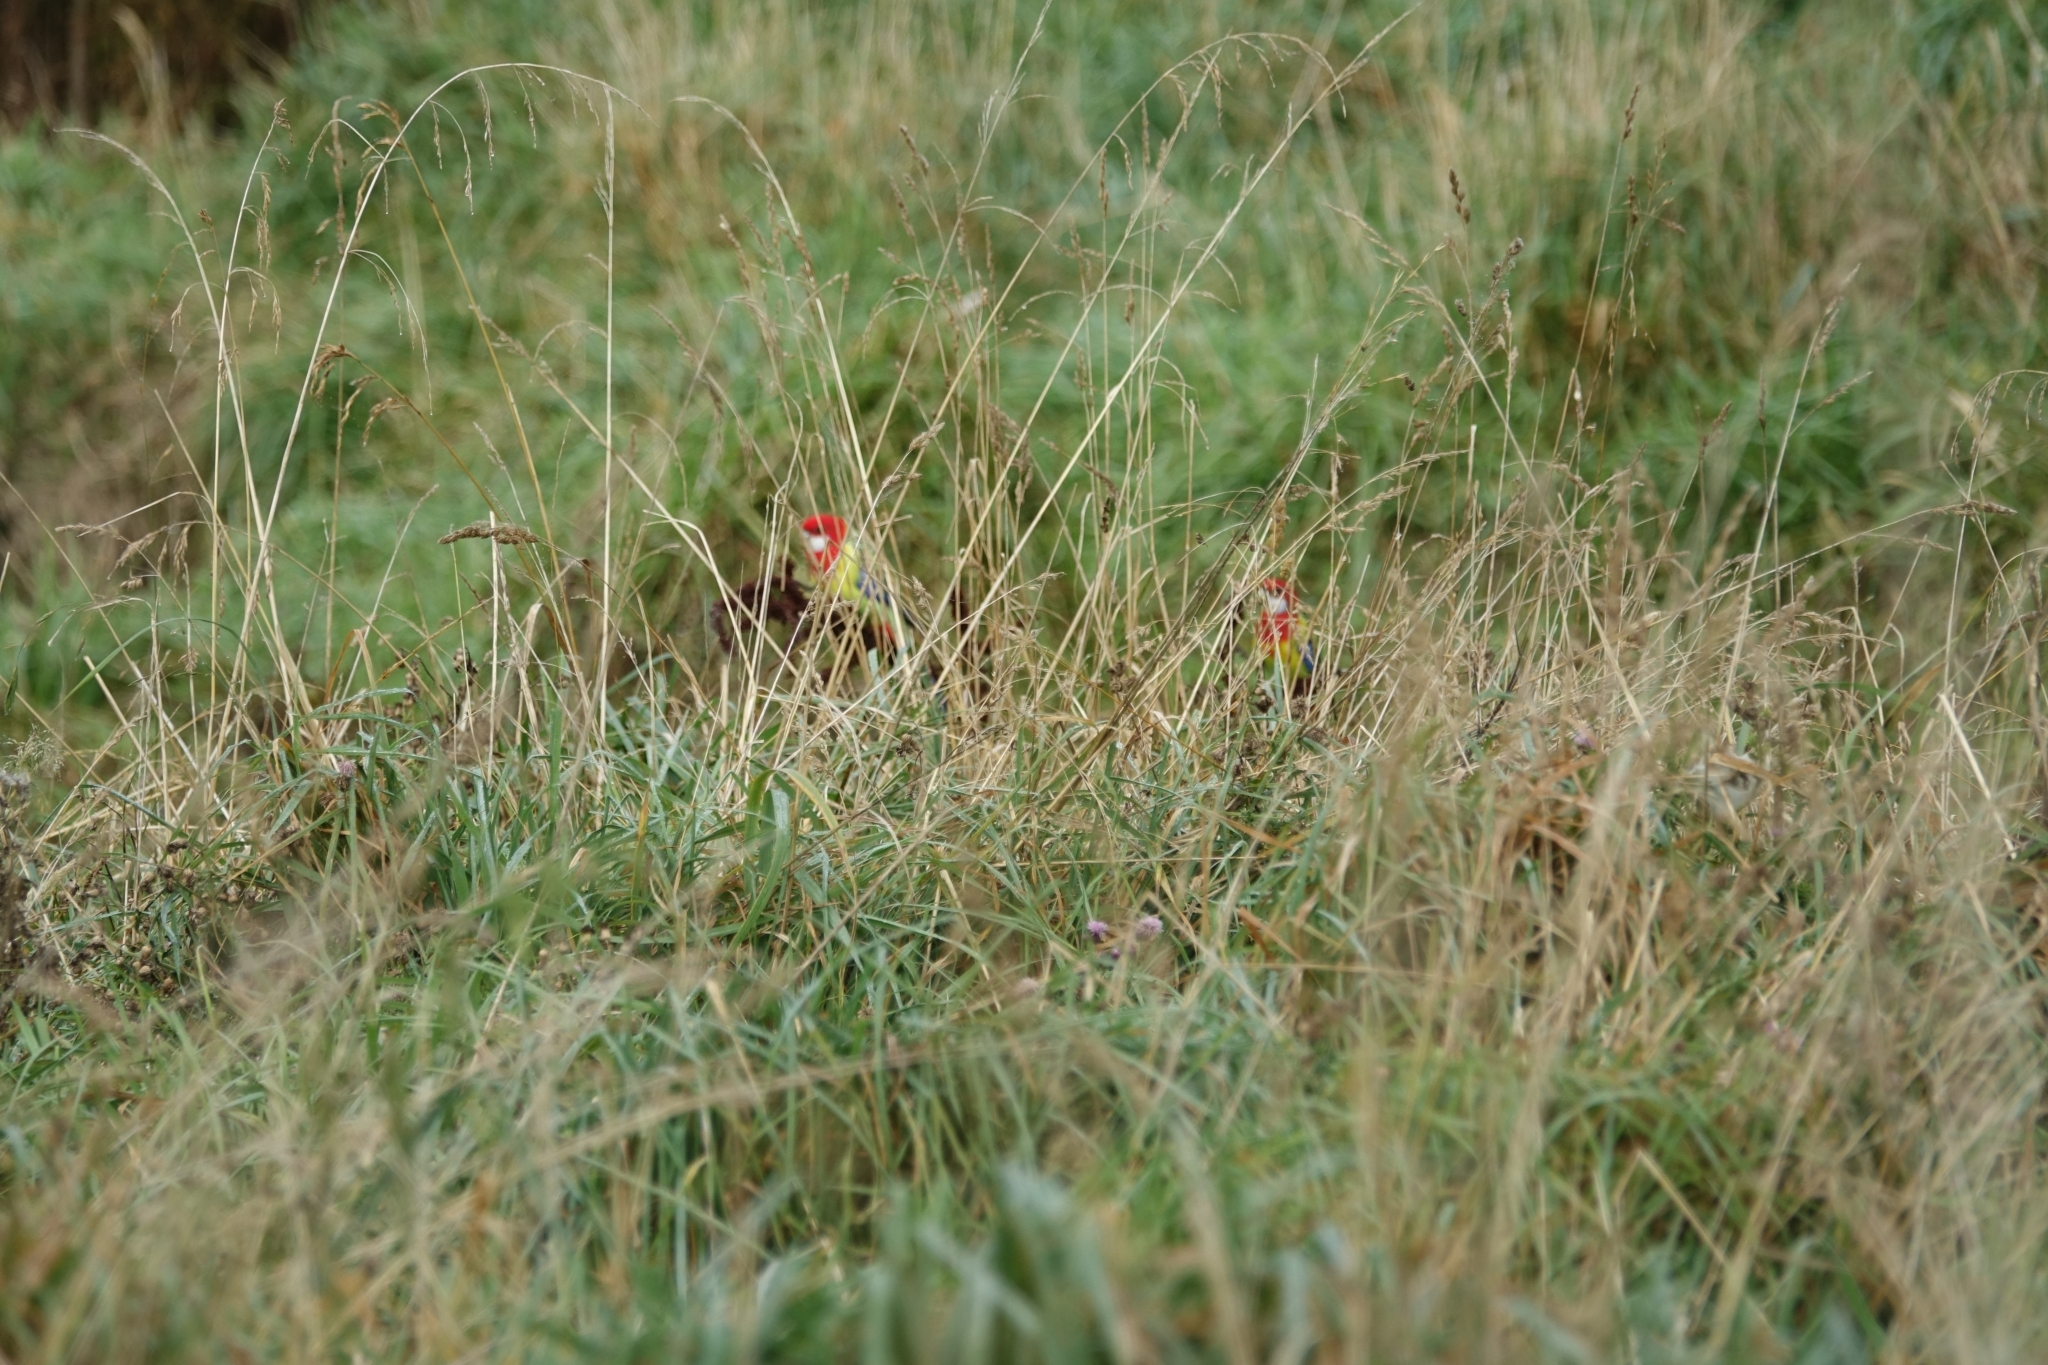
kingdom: Animalia
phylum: Chordata
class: Aves
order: Psittaciformes
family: Psittacidae
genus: Platycercus
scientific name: Platycercus eximius
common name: Eastern rosella
